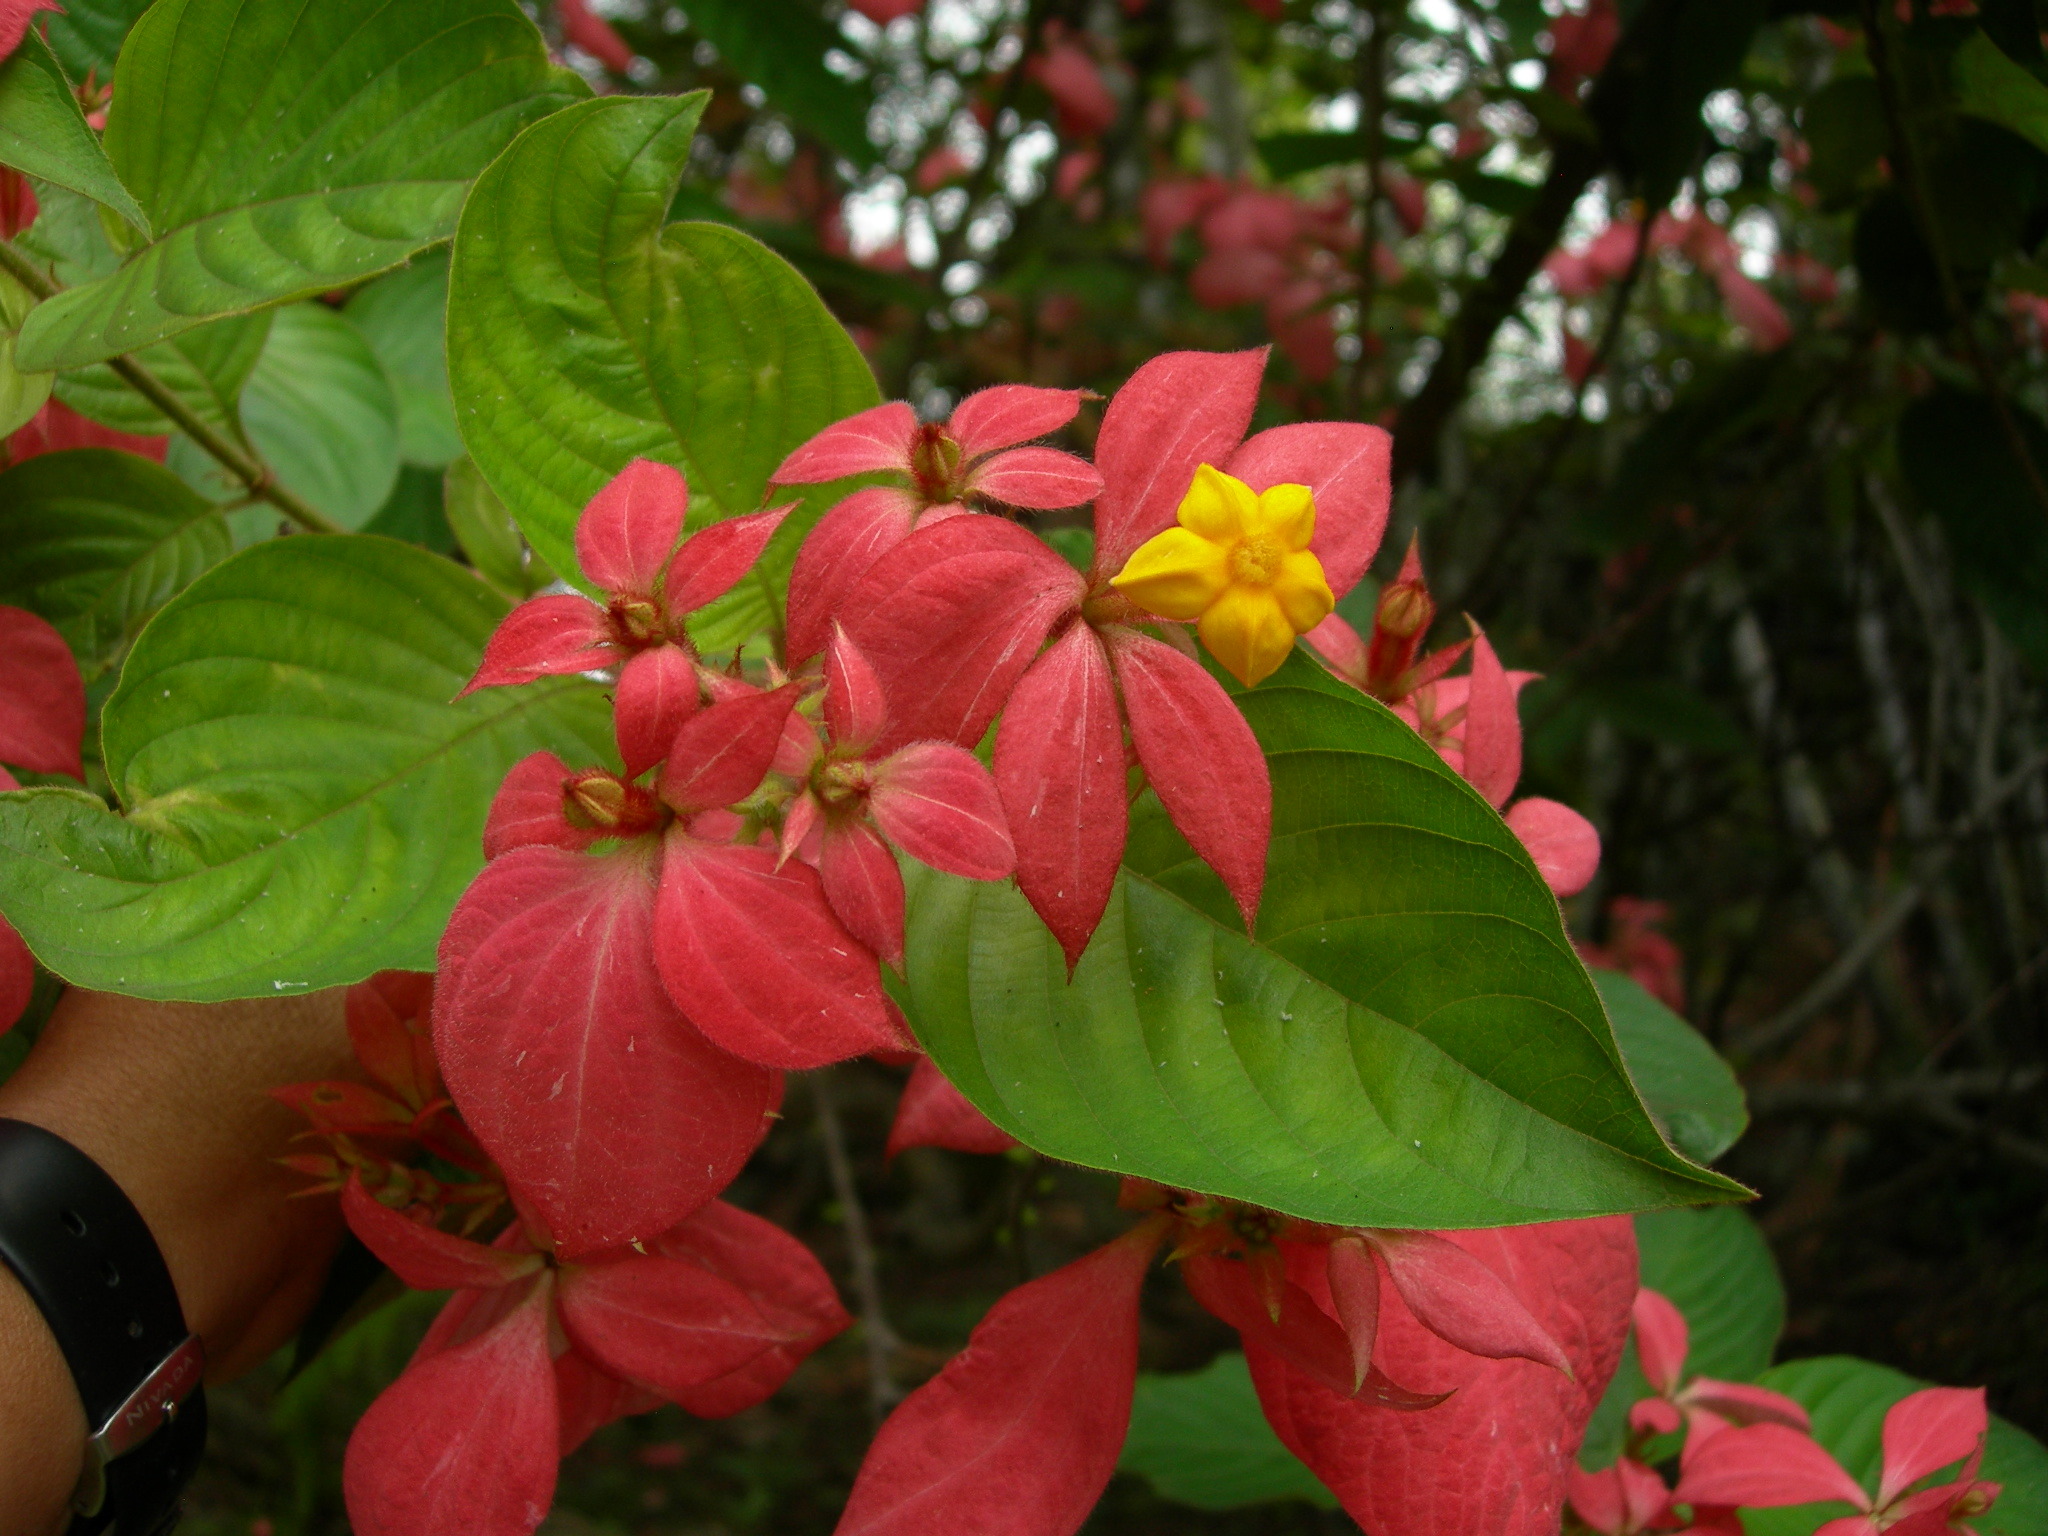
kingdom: Plantae
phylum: Tracheophyta
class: Magnoliopsida
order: Gentianales
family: Rubiaceae
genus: Mussaenda
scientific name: Mussaenda erythrophylla
